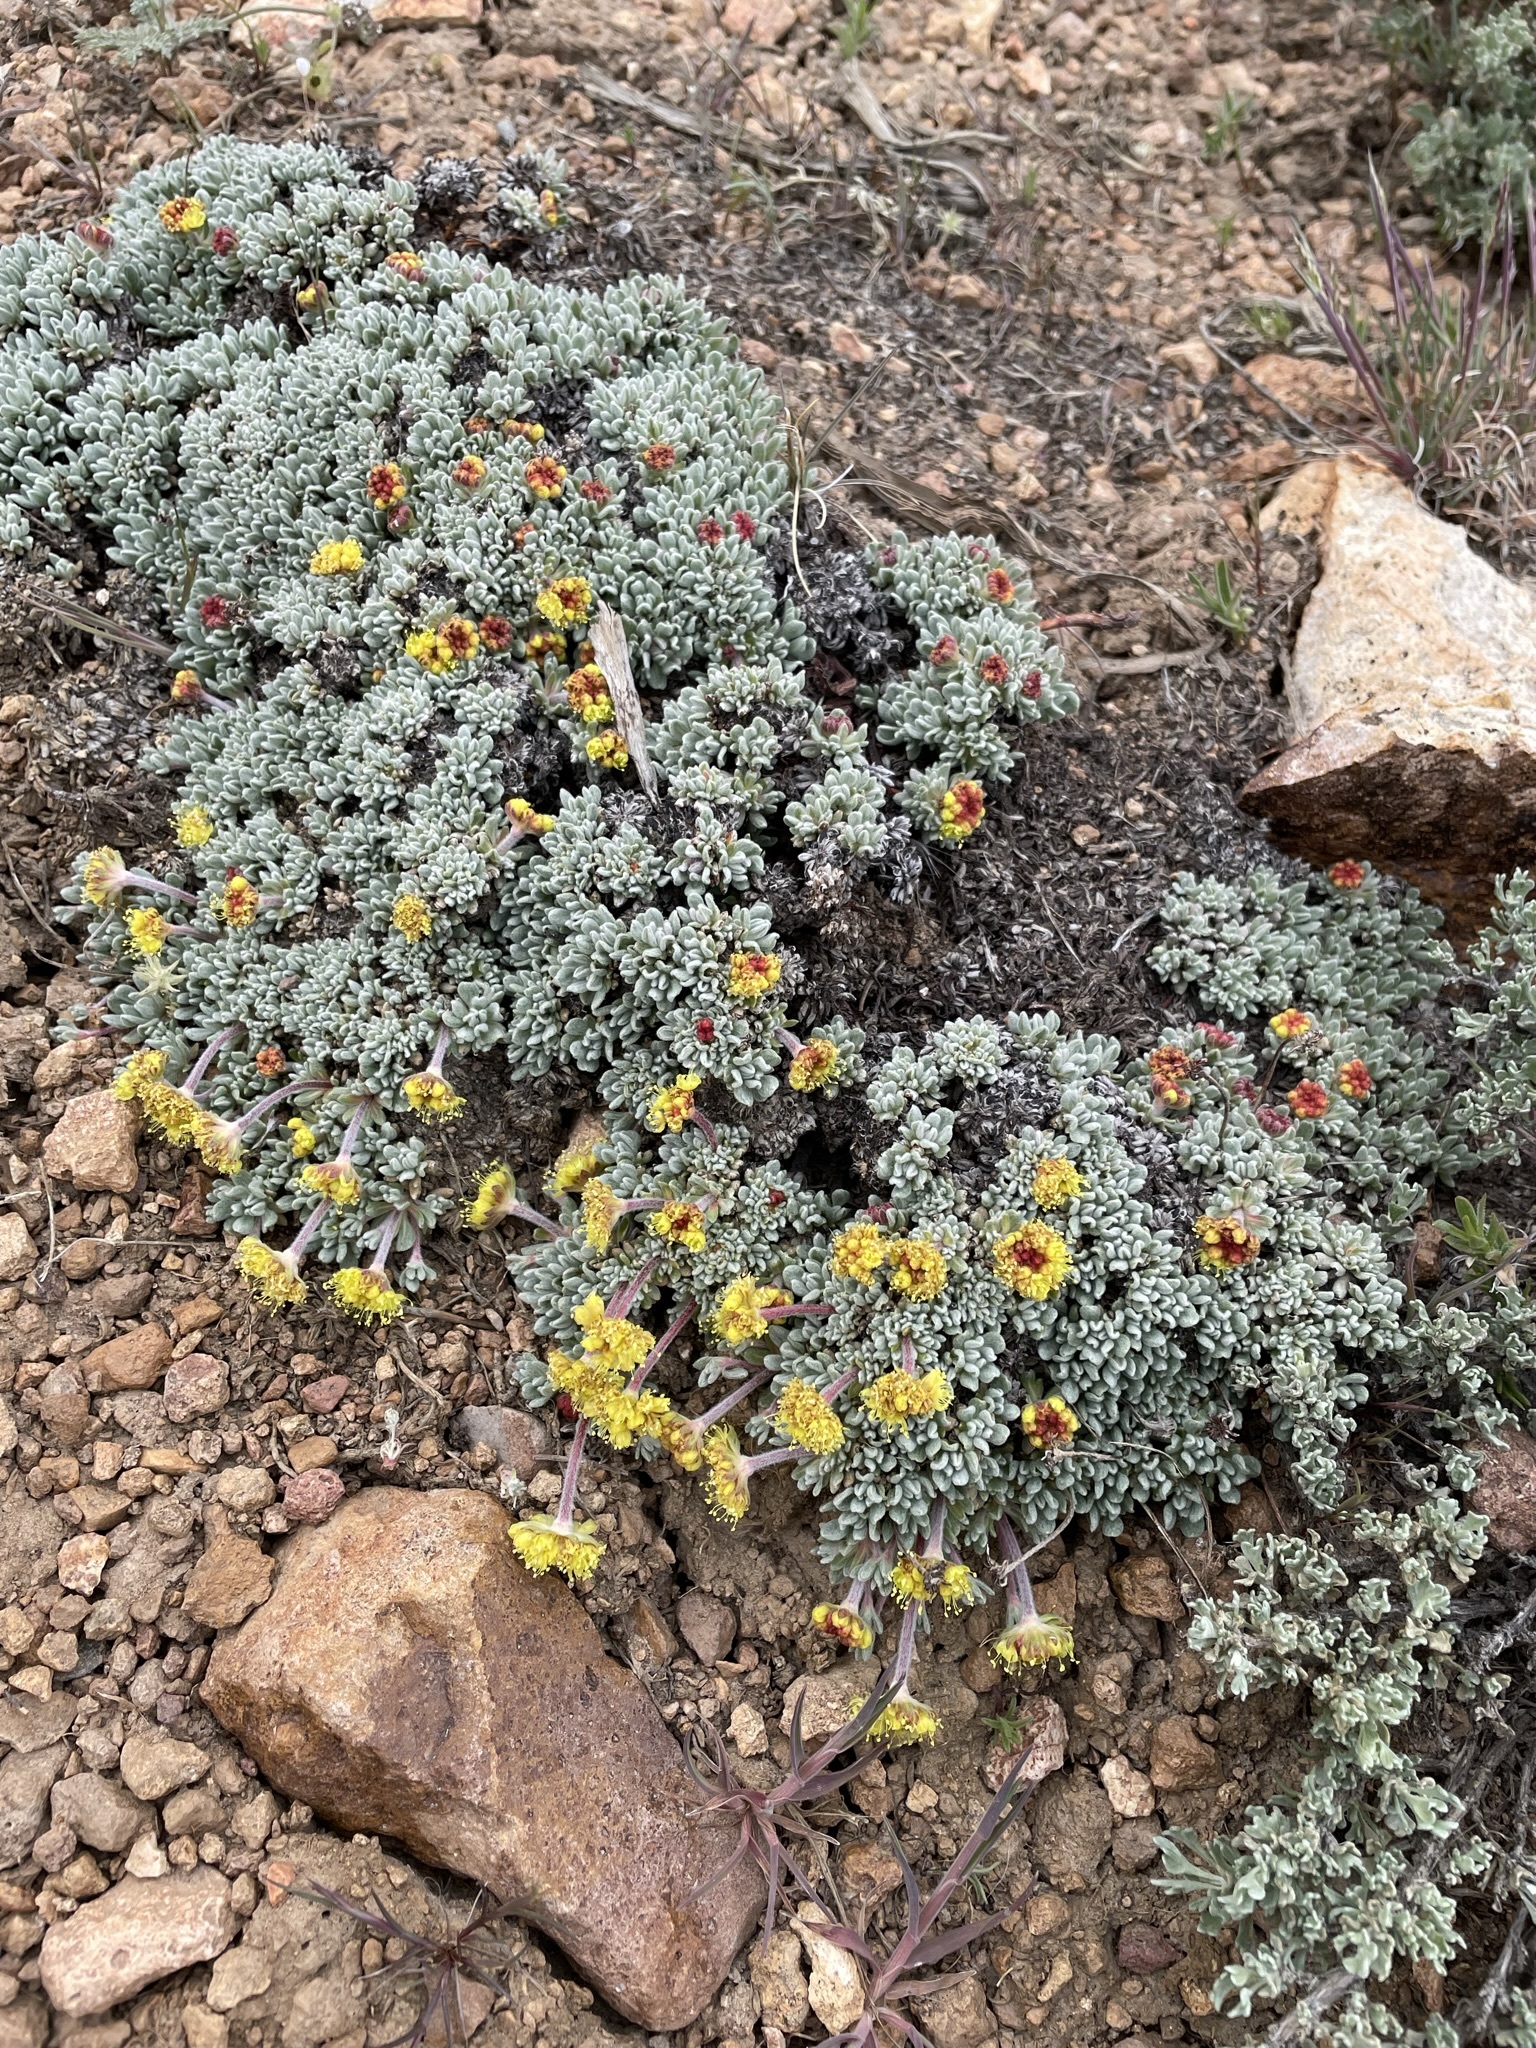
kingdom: Plantae
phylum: Tracheophyta
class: Magnoliopsida
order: Caryophyllales
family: Polygonaceae
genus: Eriogonum
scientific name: Eriogonum caespitosum
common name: Matted wild buckwheat
